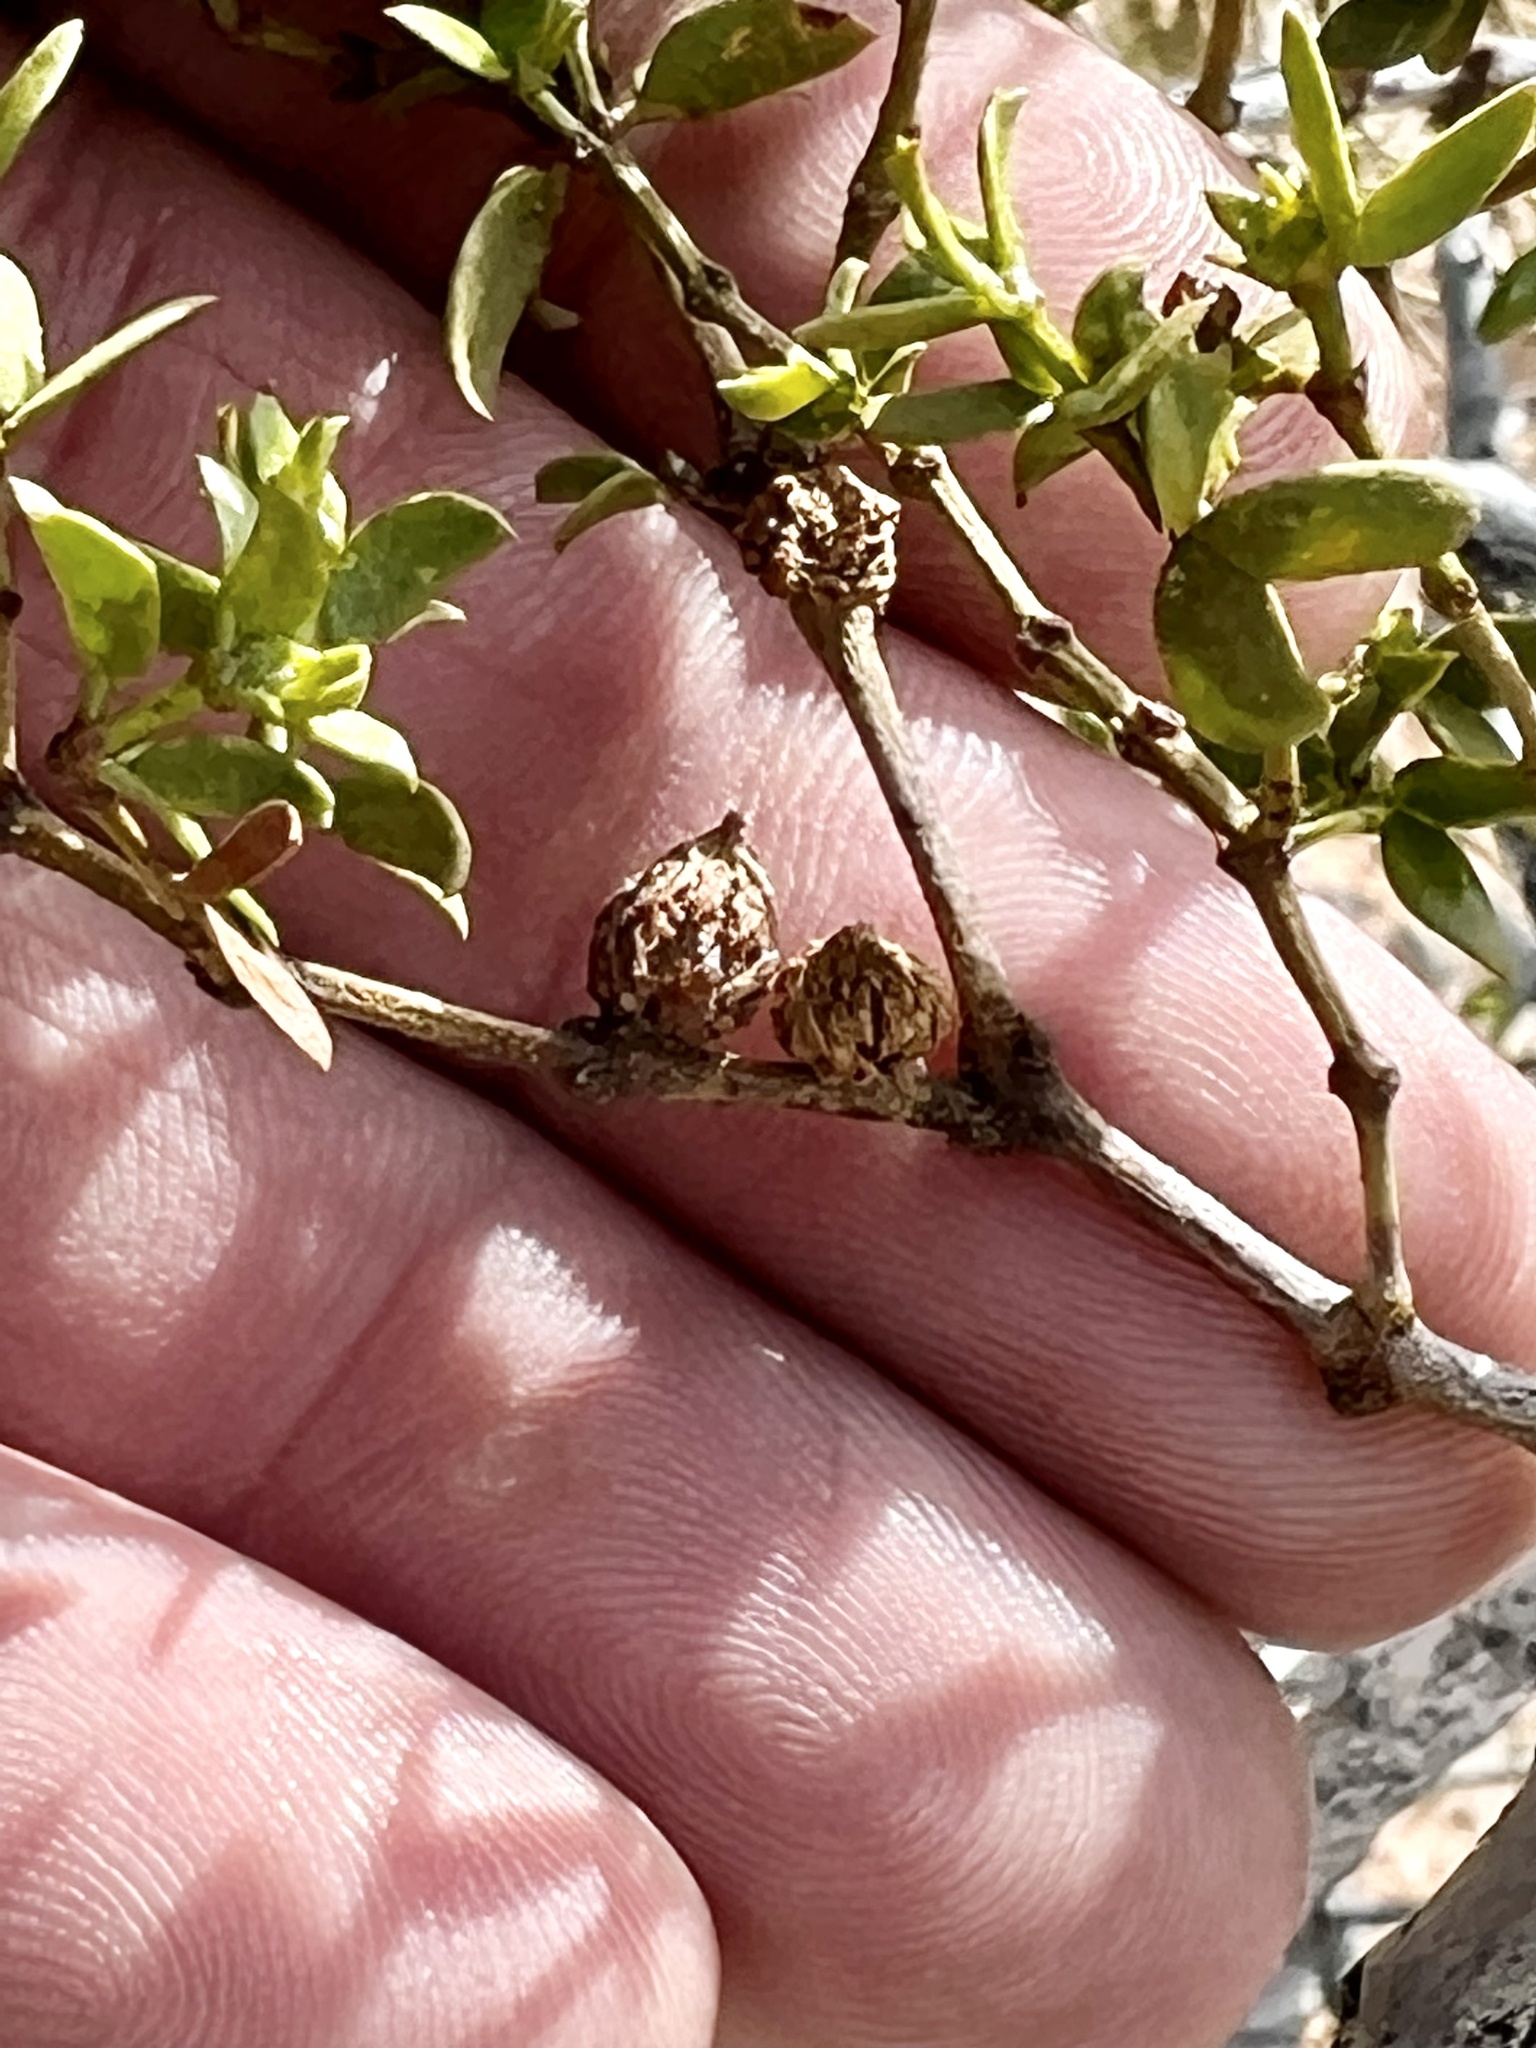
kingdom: Animalia
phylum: Arthropoda
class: Insecta
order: Diptera
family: Cecidomyiidae
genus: Asphondylia
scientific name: Asphondylia rosetta
